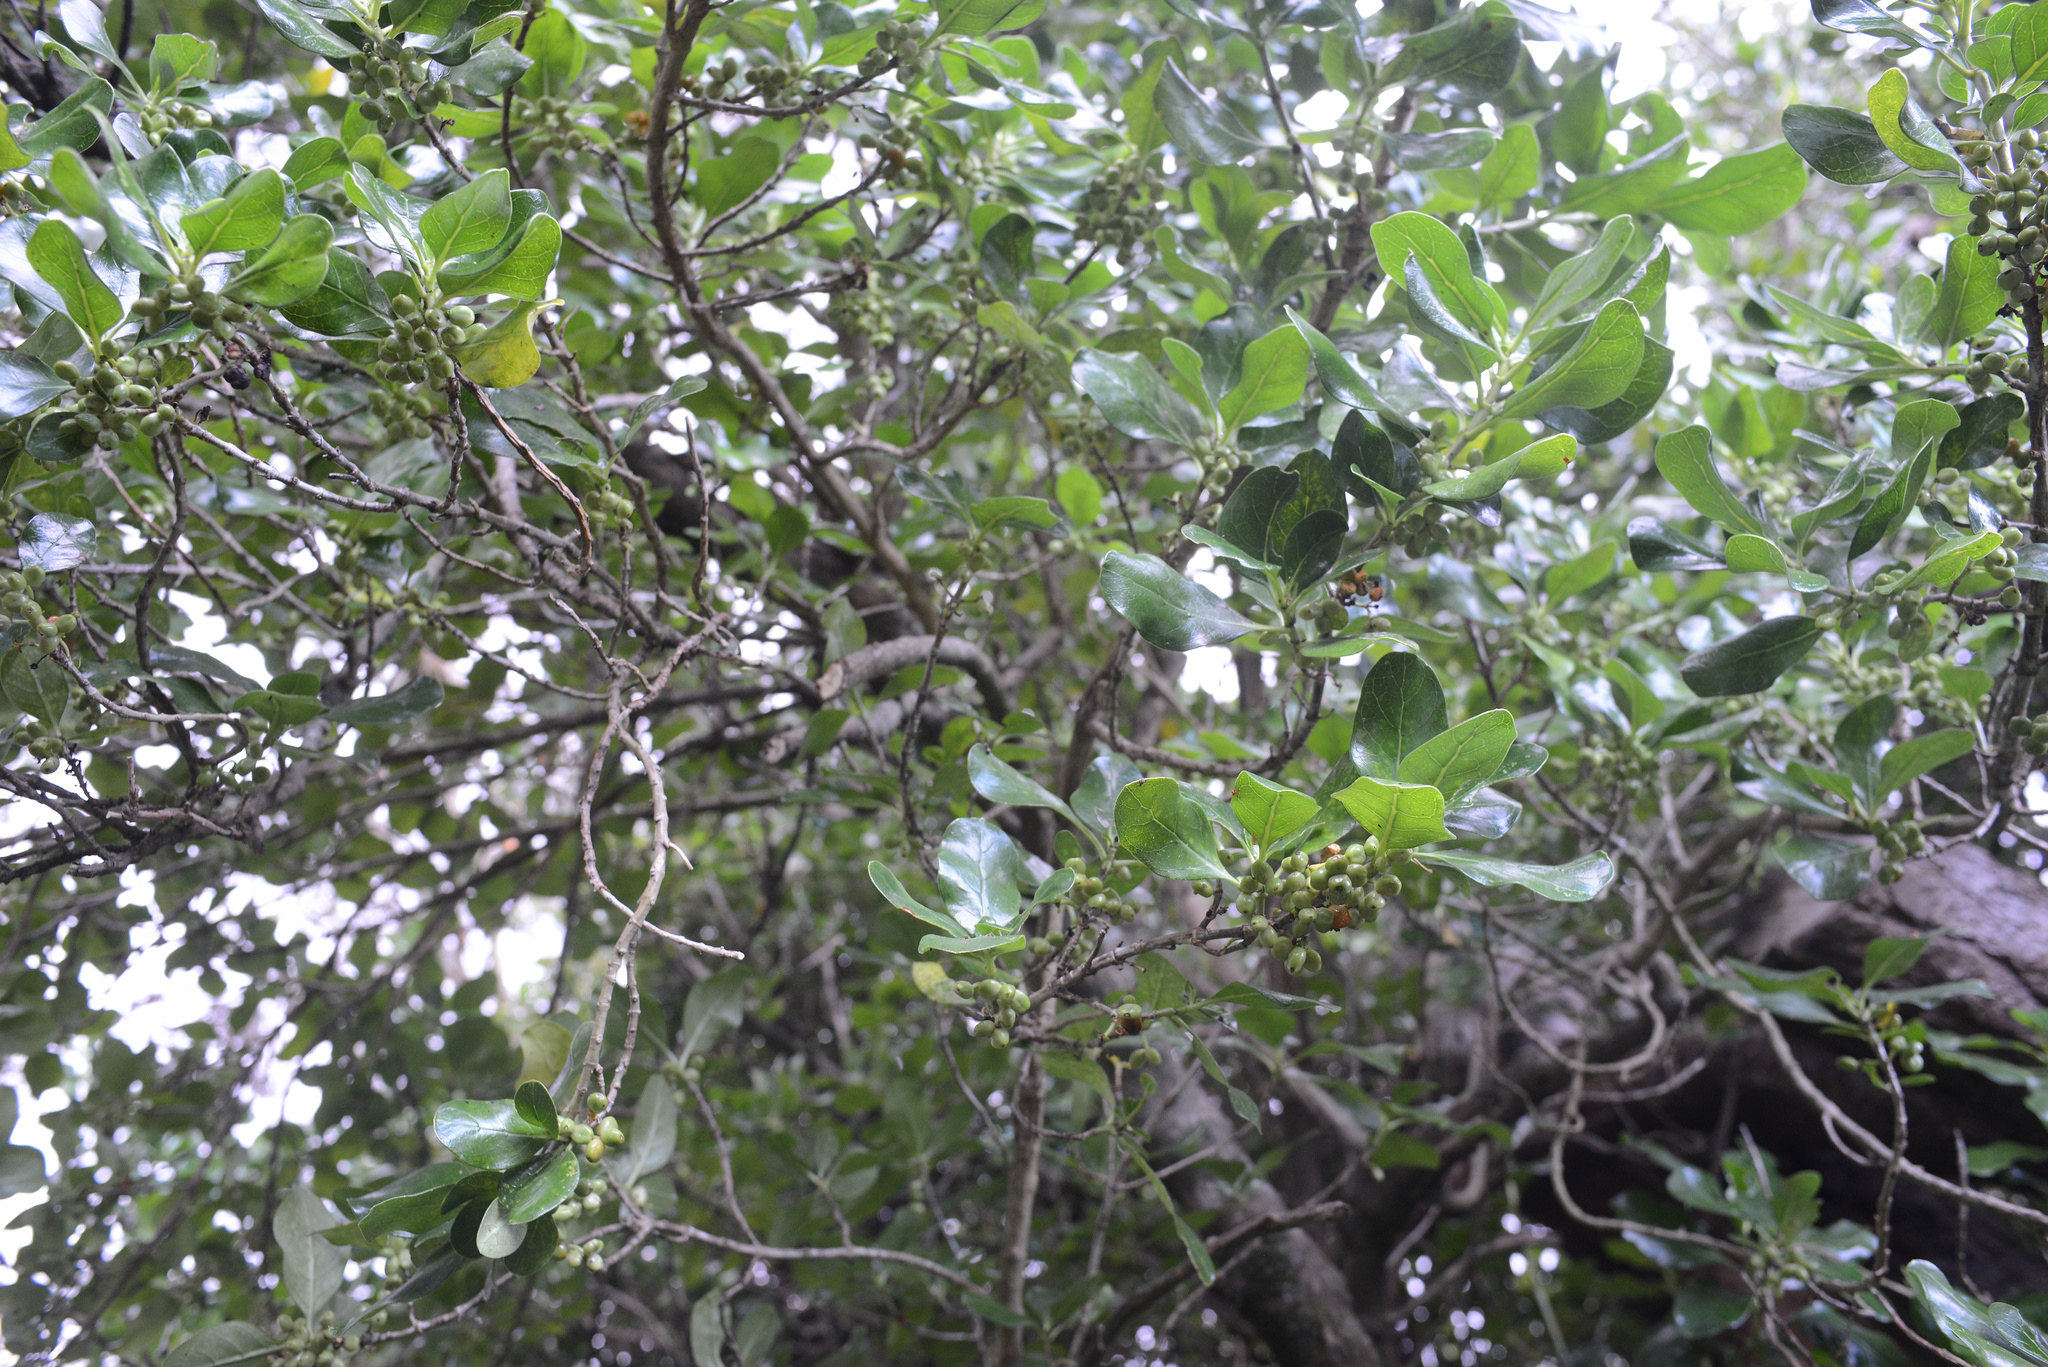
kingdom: Plantae
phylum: Tracheophyta
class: Magnoliopsida
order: Gentianales
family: Rubiaceae
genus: Coprosma
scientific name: Coprosma repens
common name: Tree bedstraw
